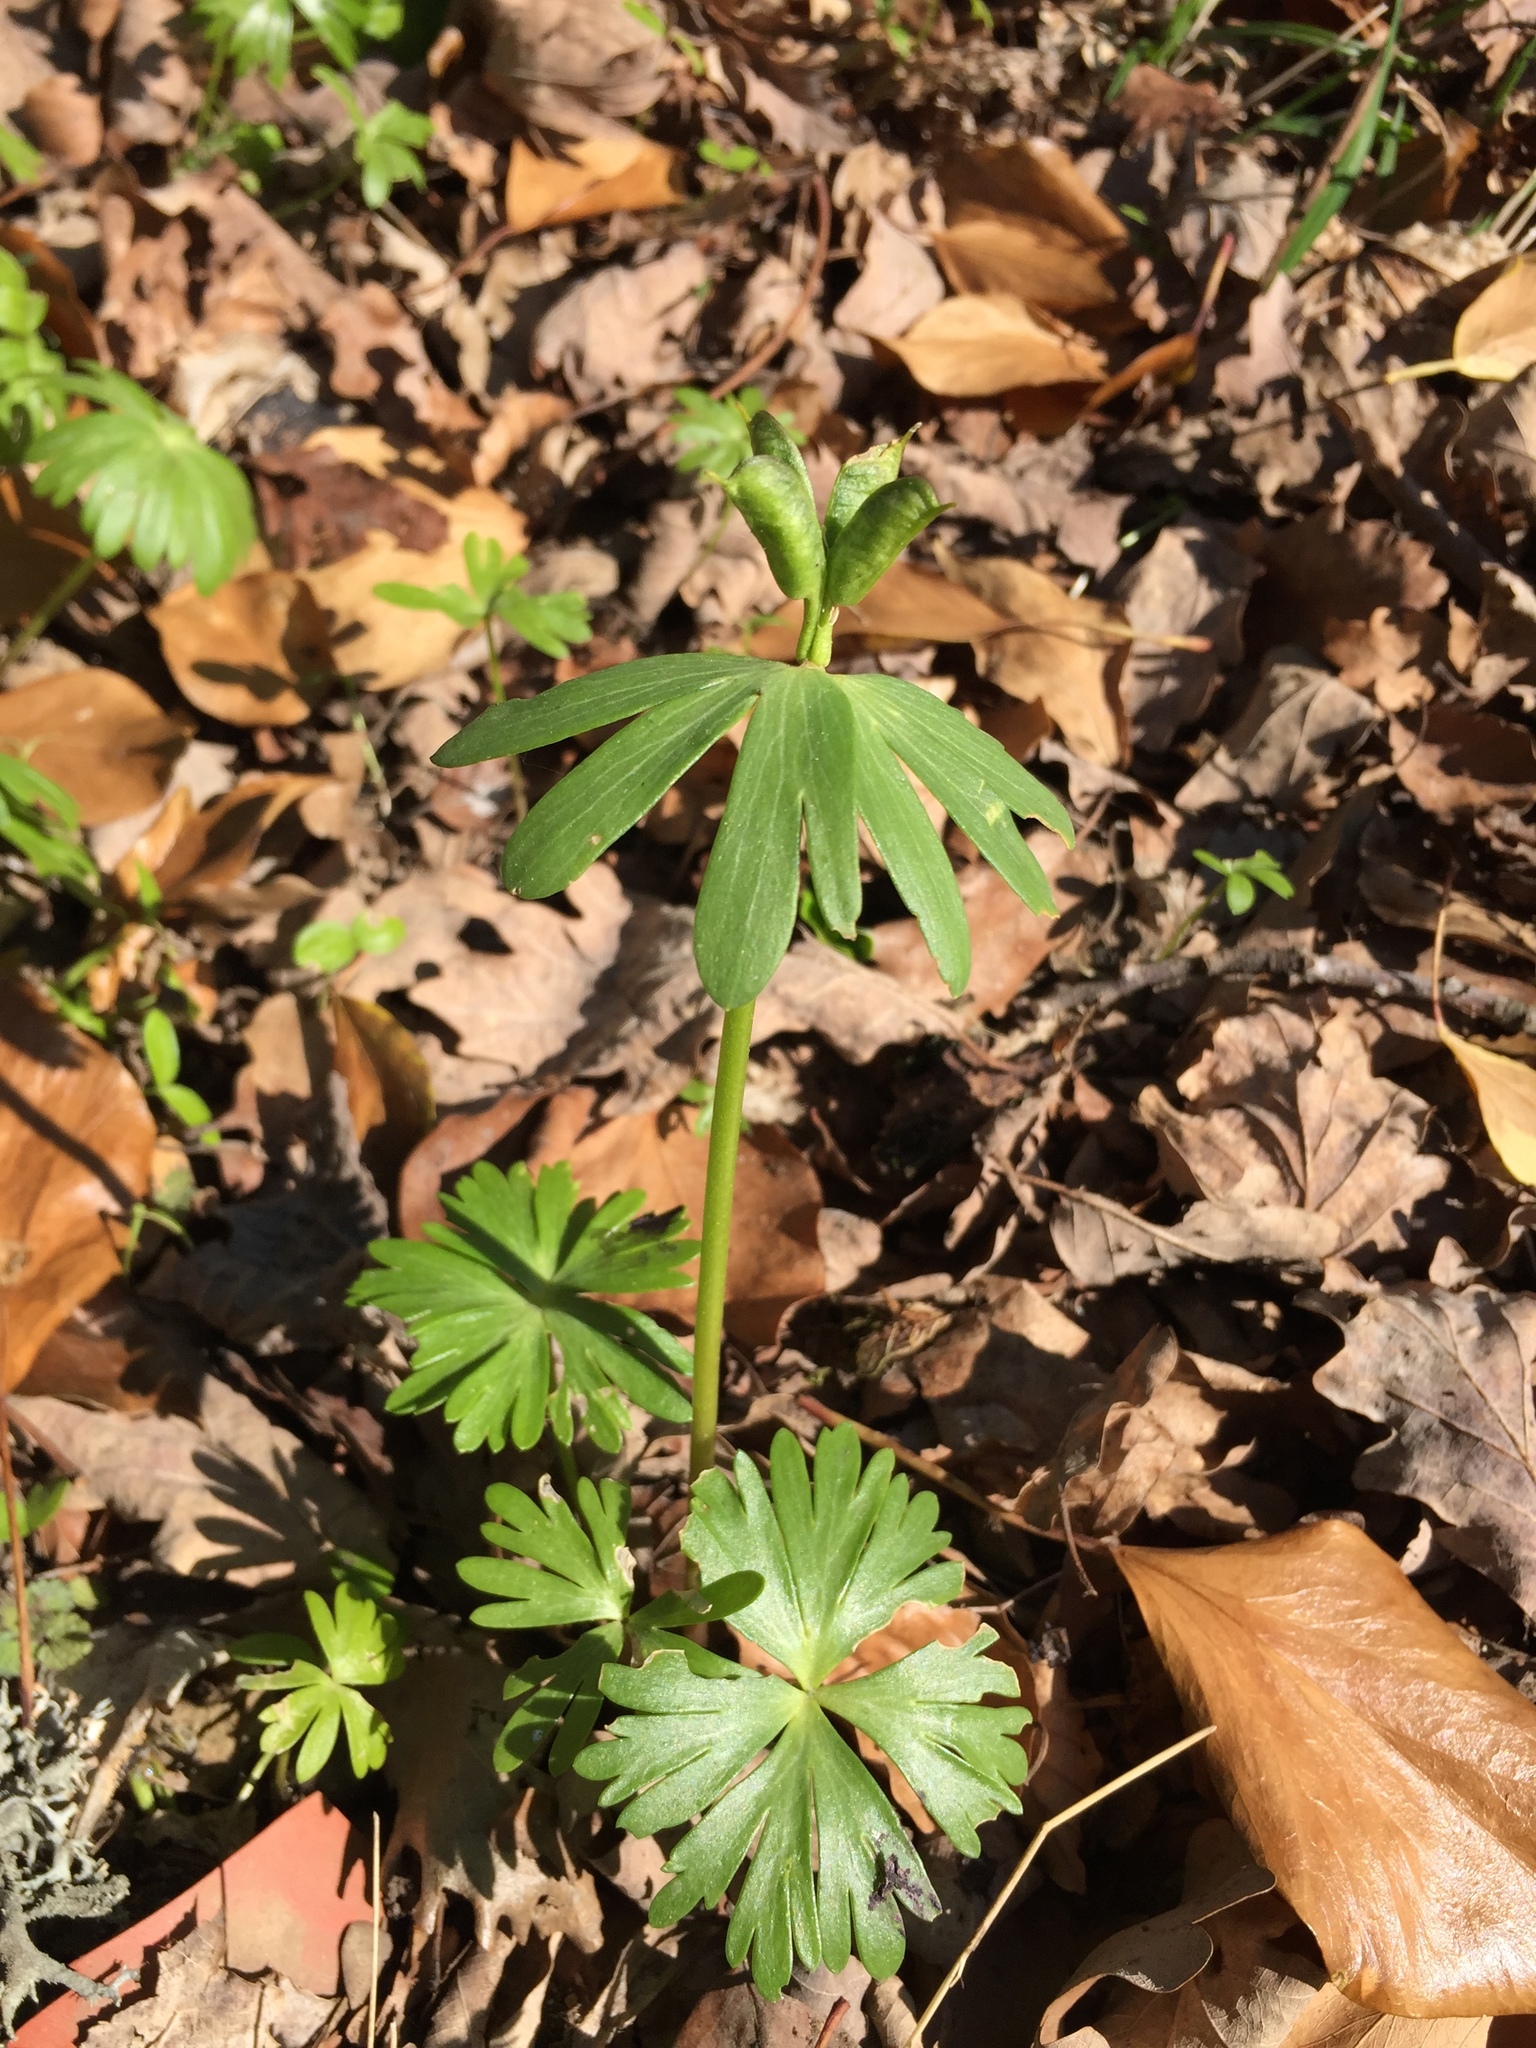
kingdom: Plantae
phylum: Tracheophyta
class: Magnoliopsida
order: Ranunculales
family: Ranunculaceae
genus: Eranthis
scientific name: Eranthis hyemalis
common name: Winter aconite
